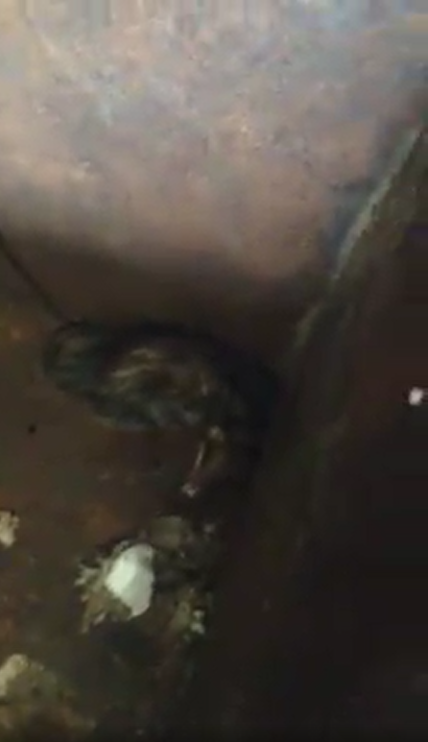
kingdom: Animalia
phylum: Chordata
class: Mammalia
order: Didelphimorphia
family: Didelphidae
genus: Didelphis
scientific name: Didelphis virginiana
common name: Virginia opossum
